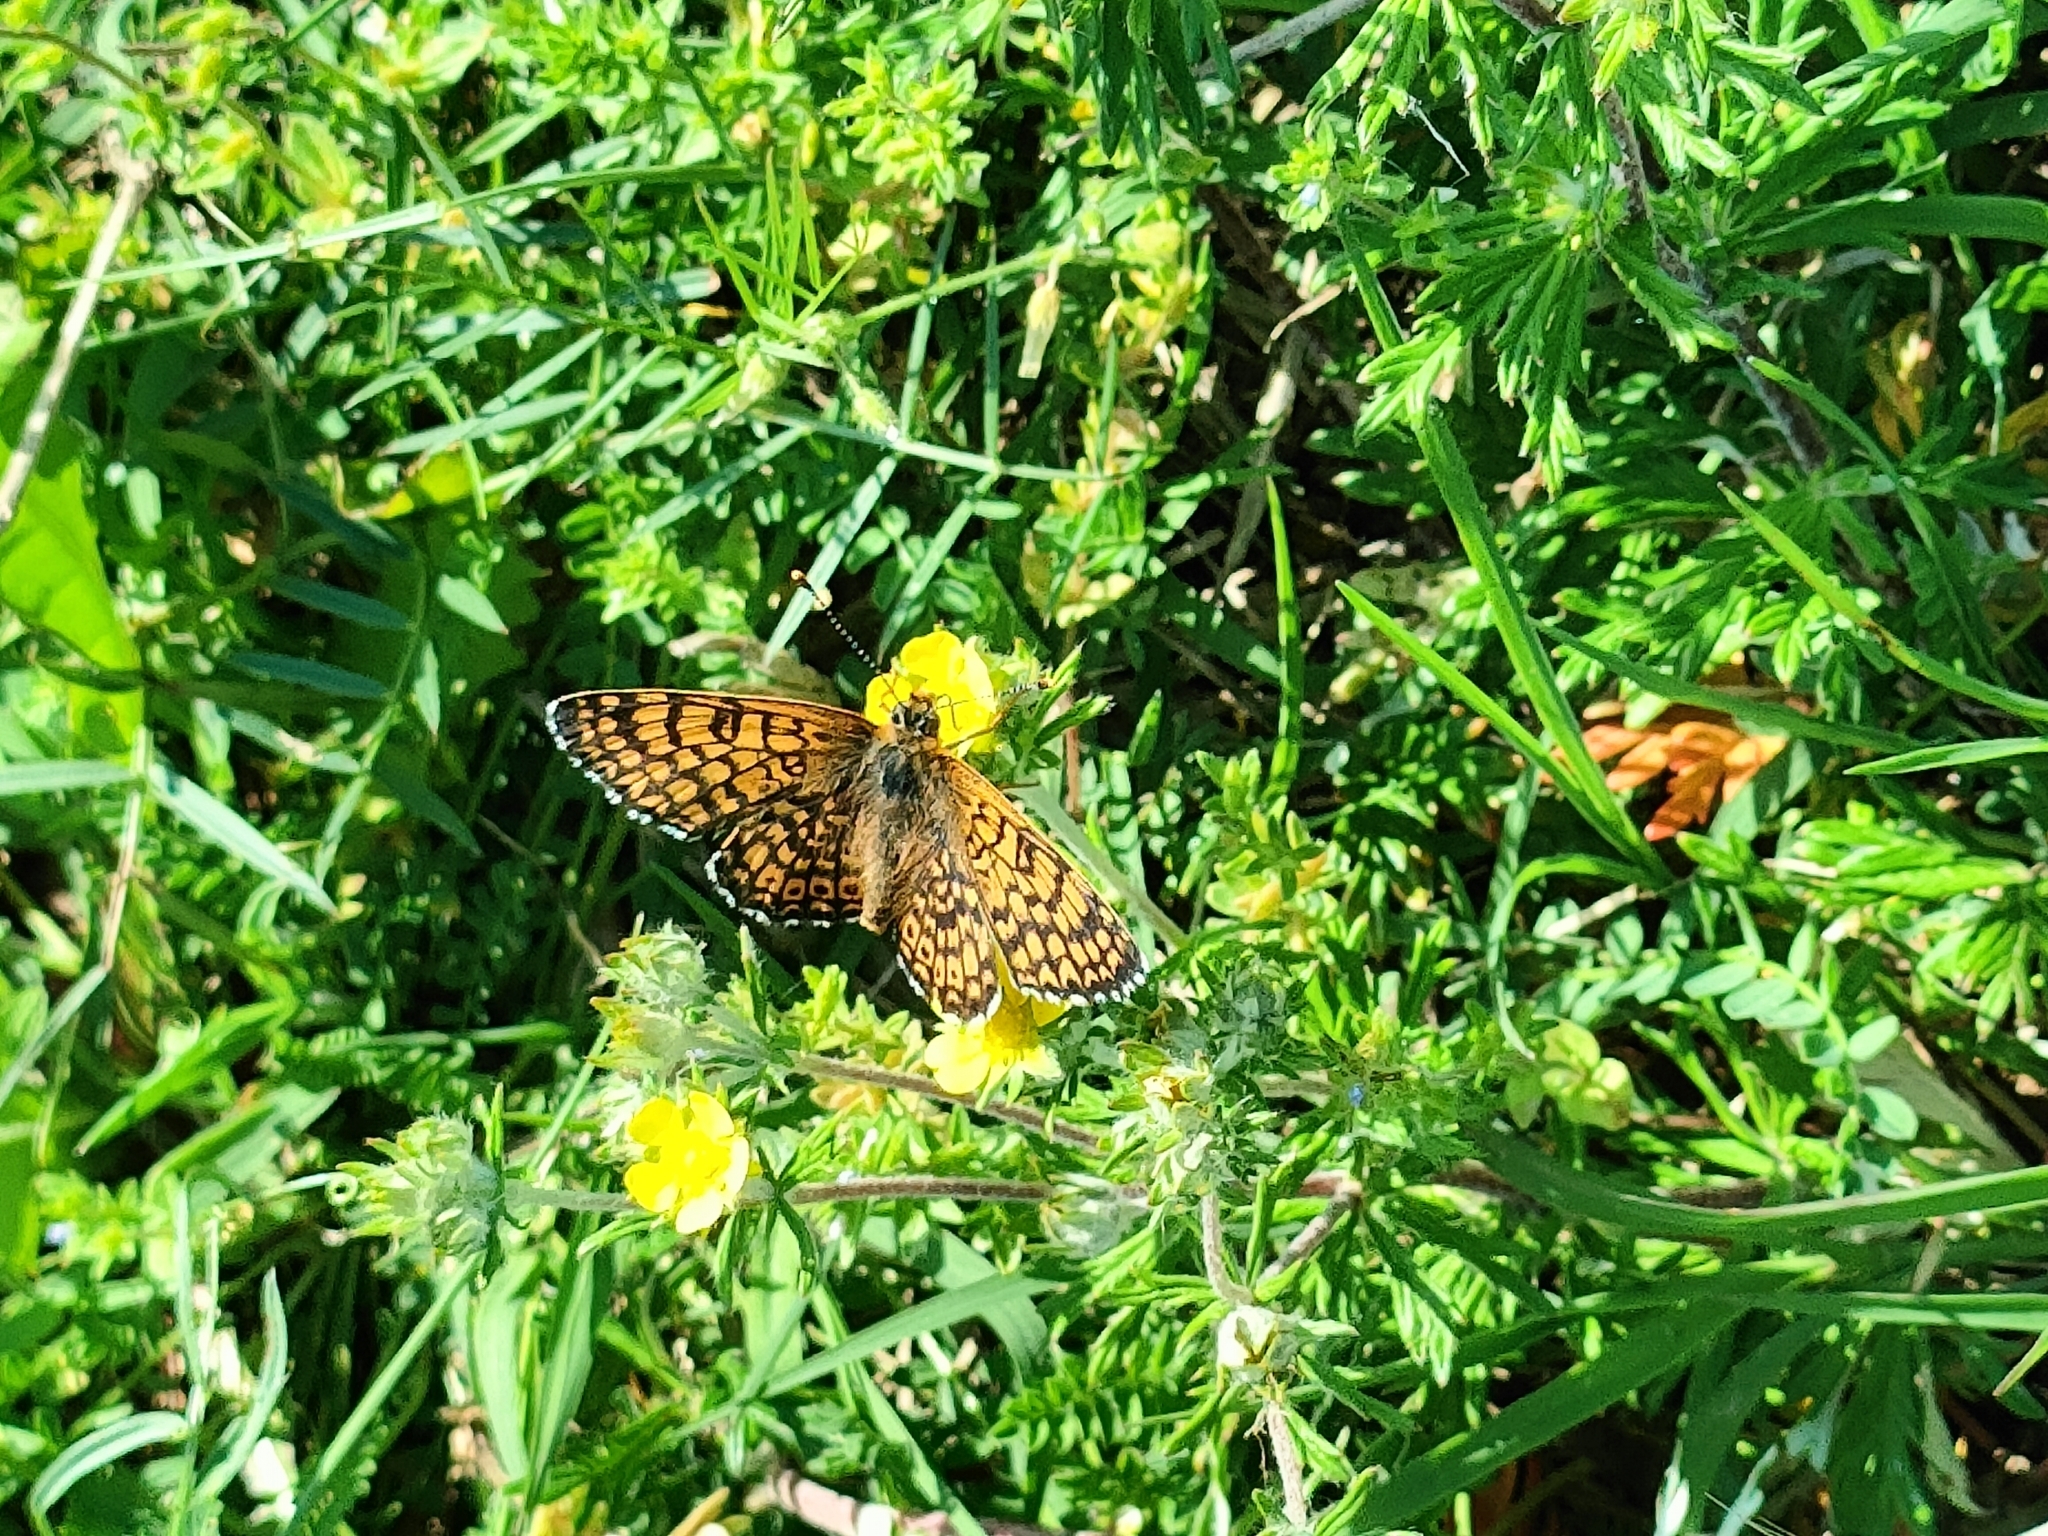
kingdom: Animalia
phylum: Arthropoda
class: Insecta
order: Lepidoptera
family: Nymphalidae
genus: Melitaea
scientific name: Melitaea cinxia
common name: Glanville fritillary
